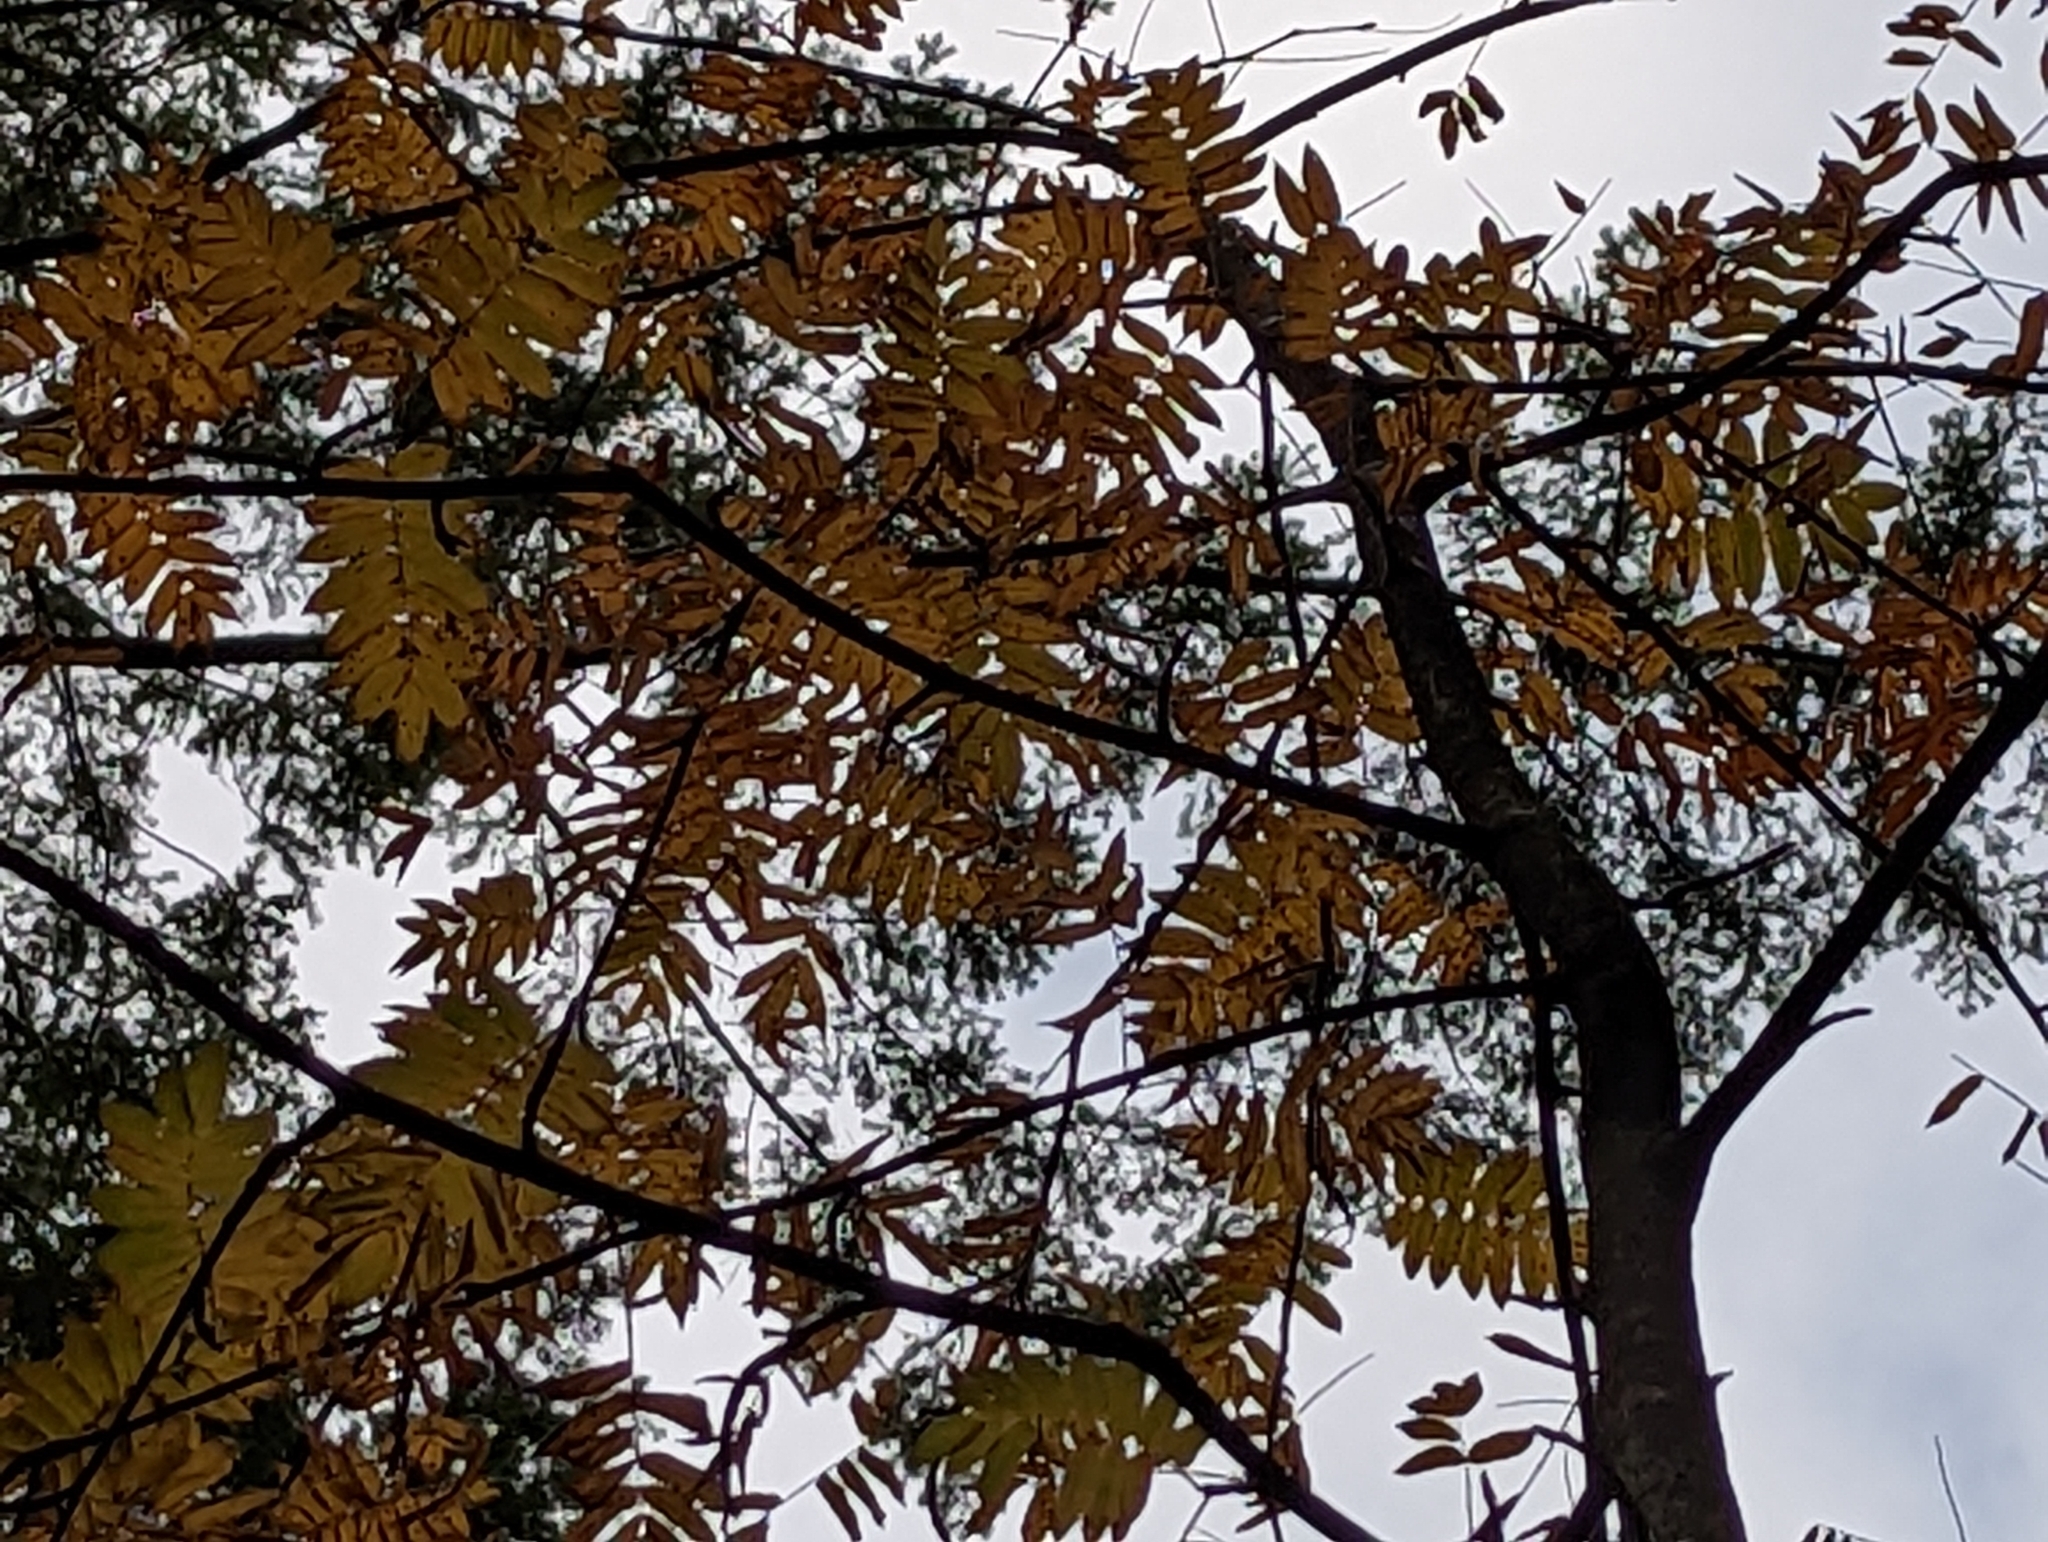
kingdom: Plantae
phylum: Tracheophyta
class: Magnoliopsida
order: Rosales
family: Rosaceae
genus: Sorbus
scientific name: Sorbus aucuparia
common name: Rowan
